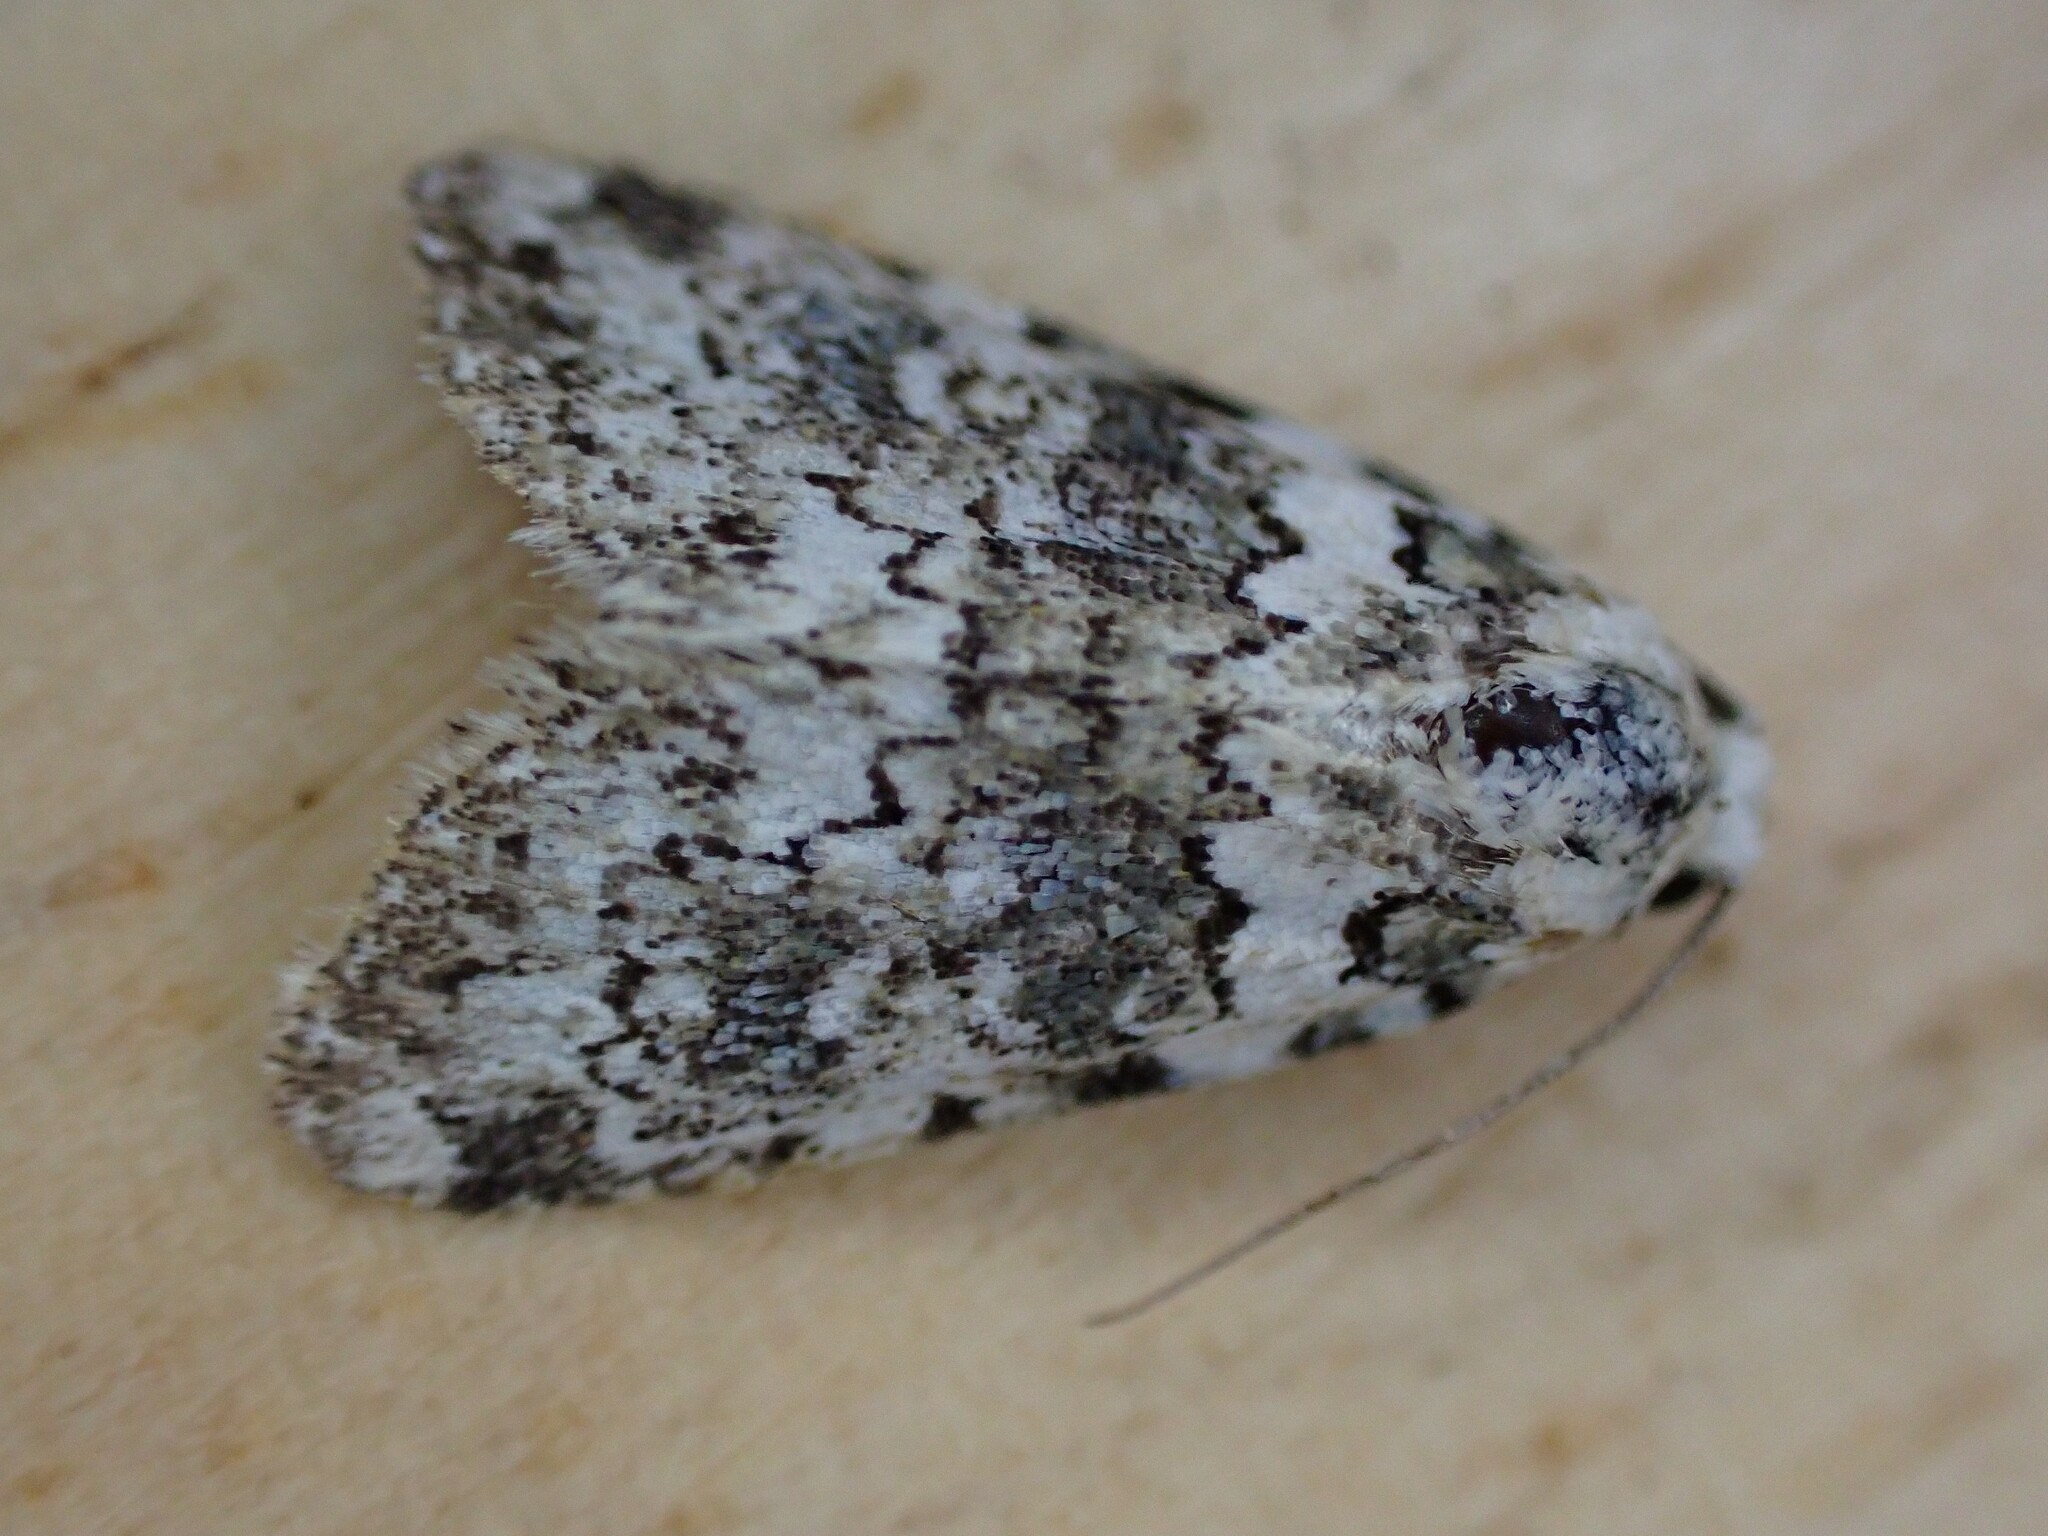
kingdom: Animalia
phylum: Arthropoda
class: Insecta
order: Lepidoptera
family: Noctuidae
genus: Bryophila
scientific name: Bryophila domestica
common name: Marbled beauty
